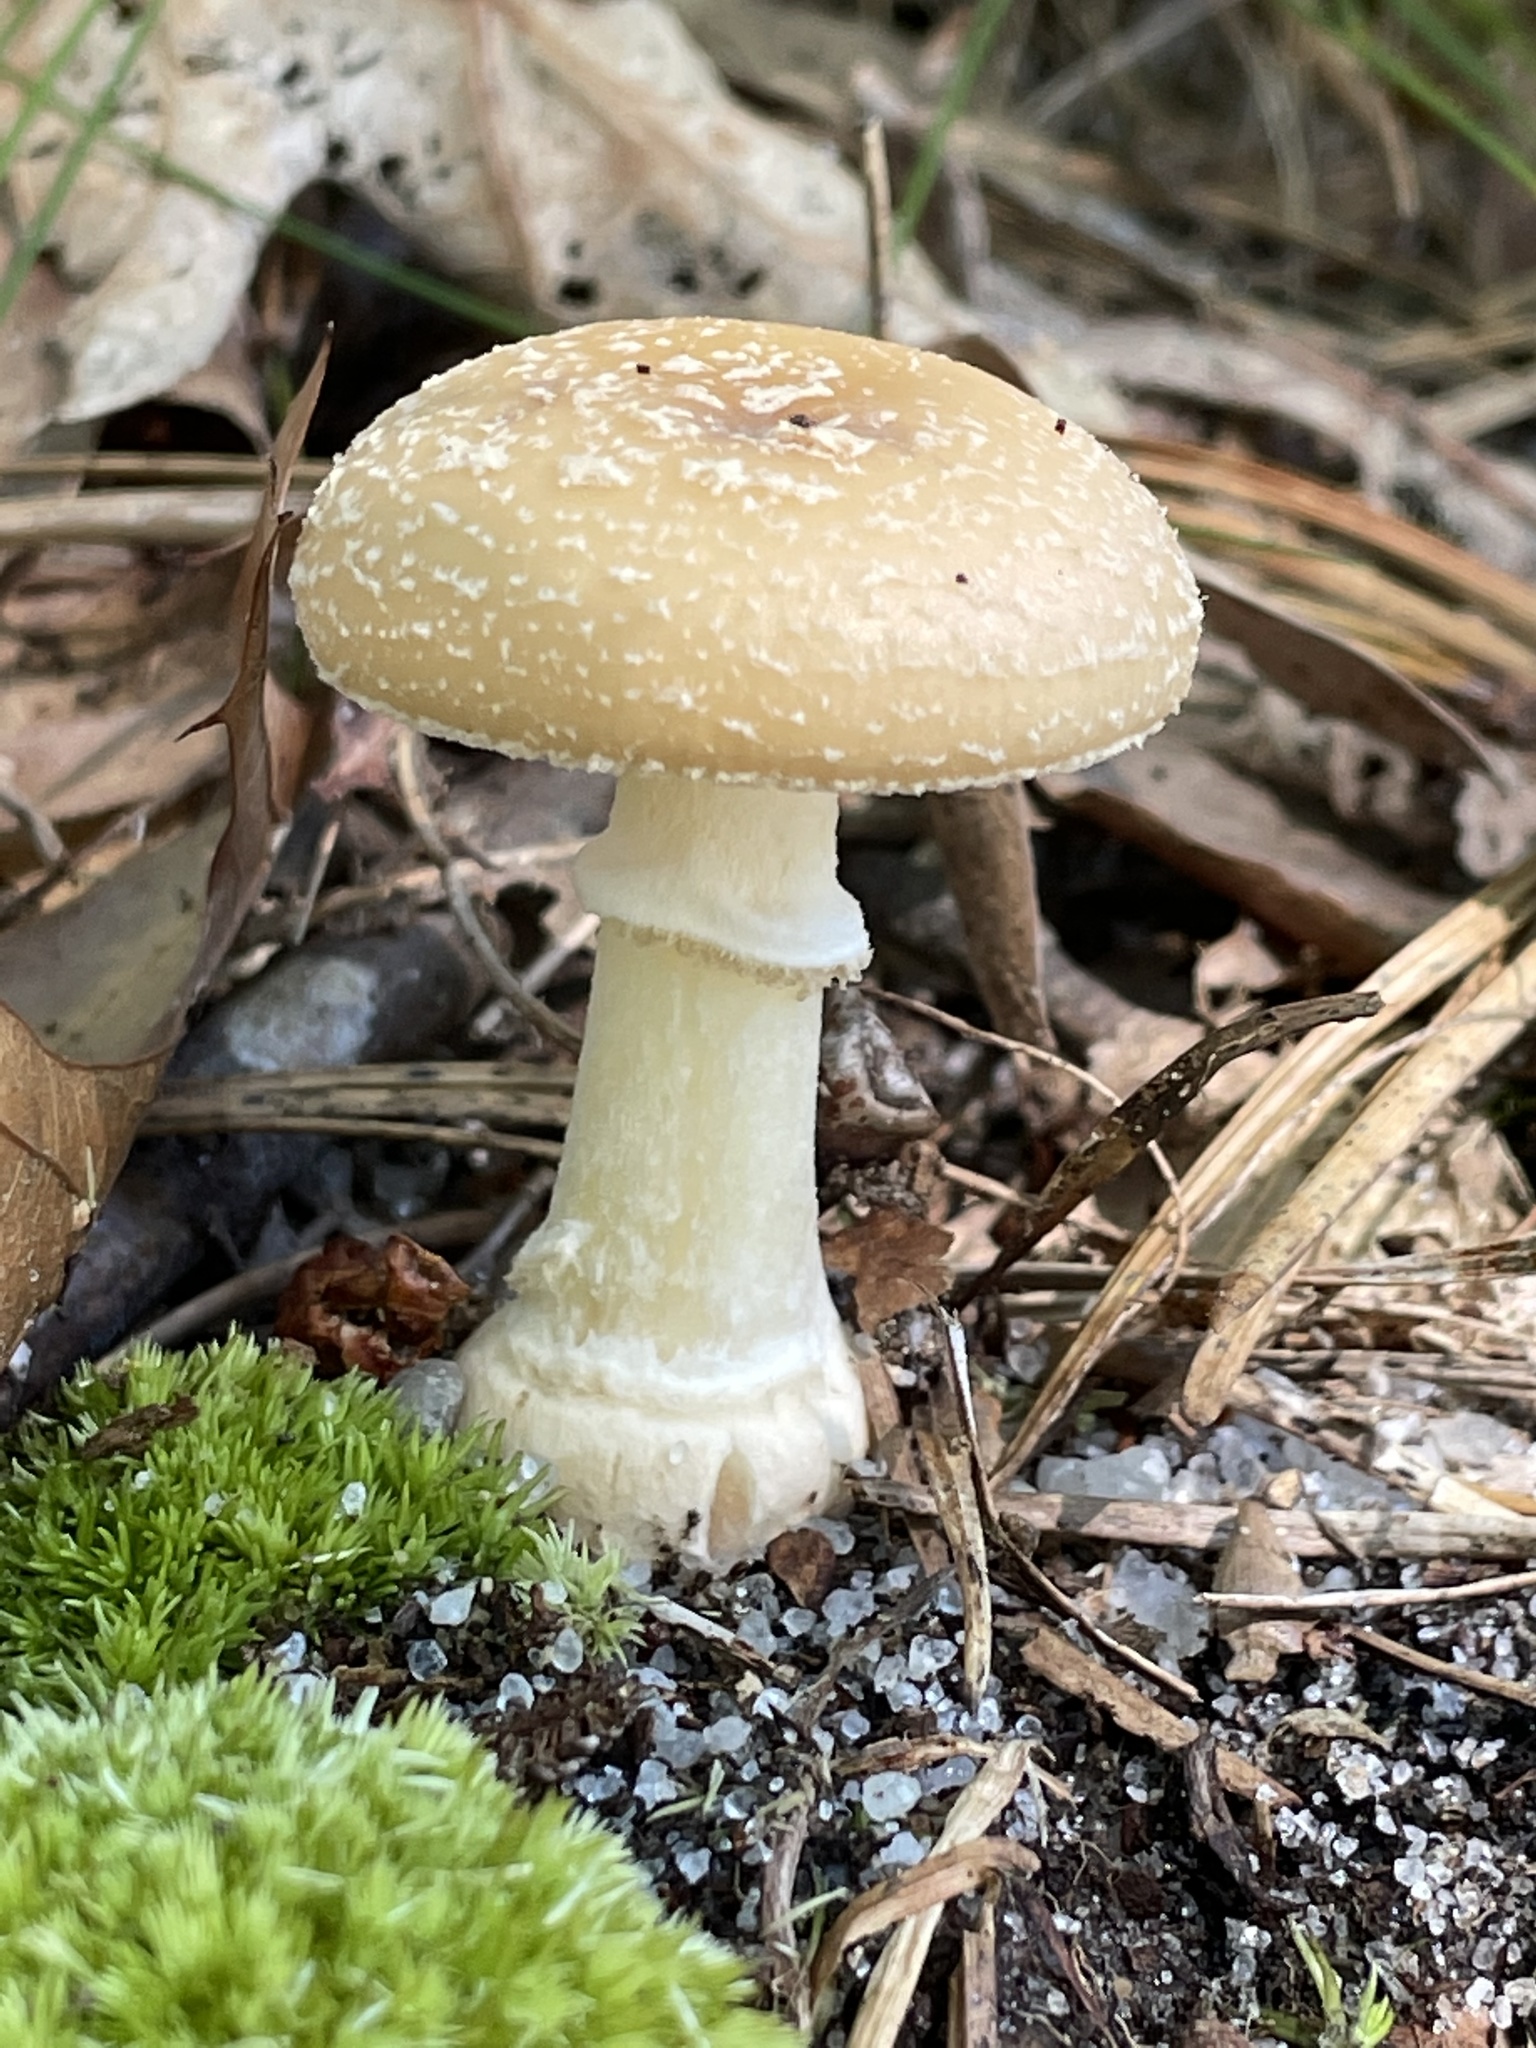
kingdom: Fungi
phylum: Basidiomycota
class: Agaricomycetes
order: Agaricales
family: Amanitaceae
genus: Amanita
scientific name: Amanita crenulata
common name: Poison champagne amanita
